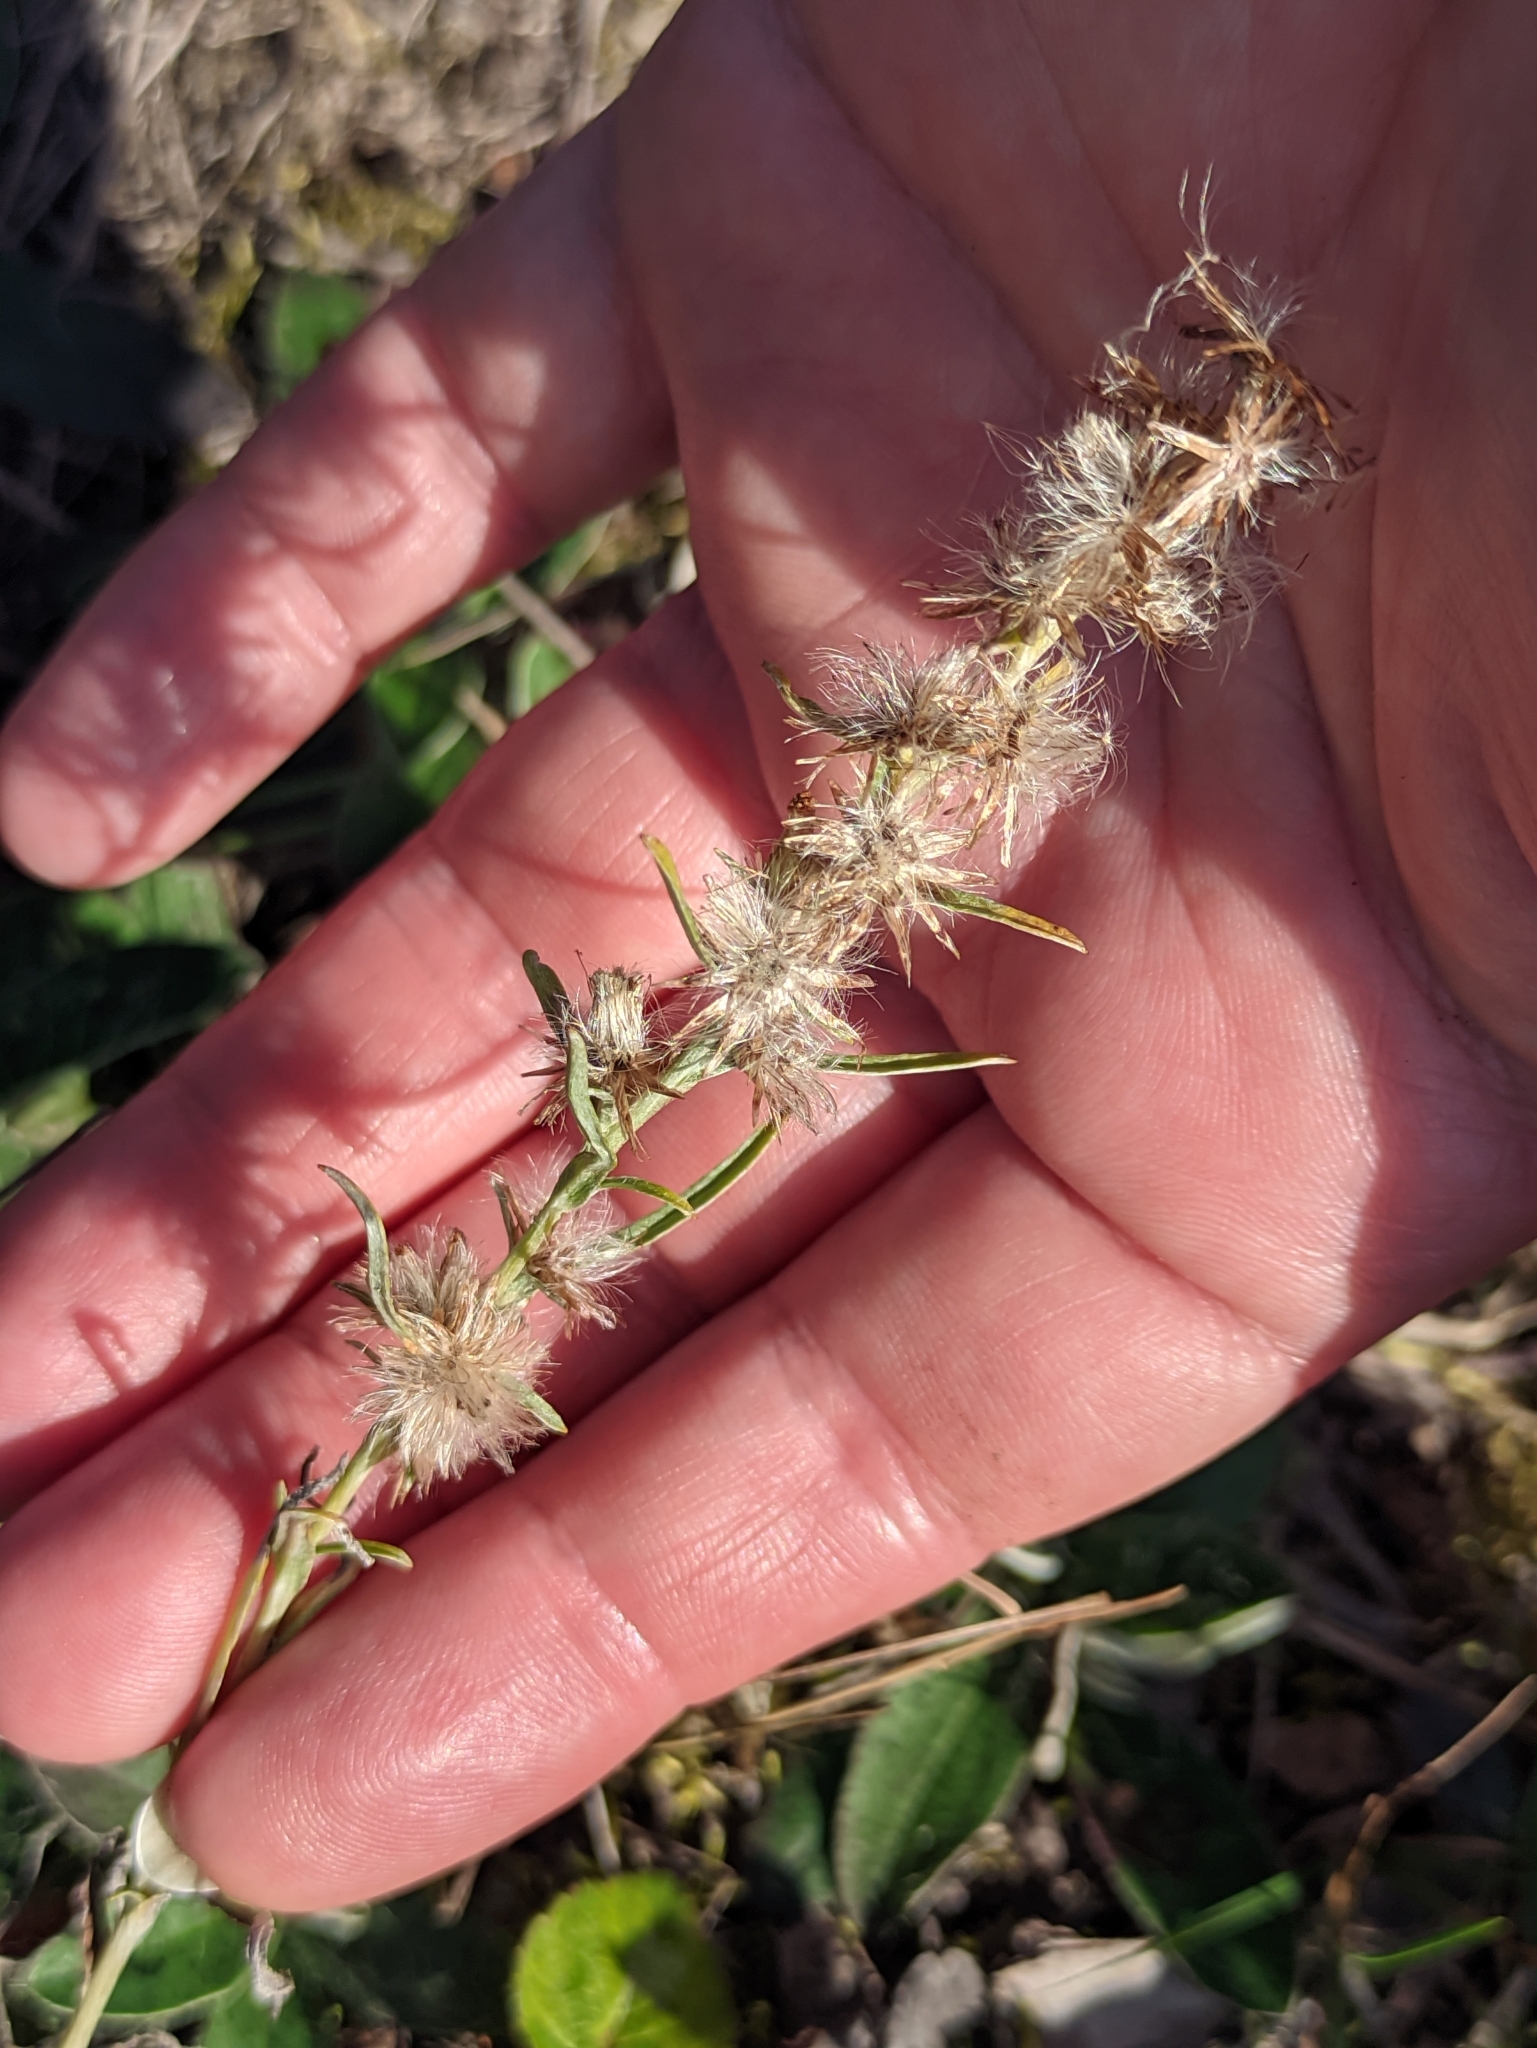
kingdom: Plantae
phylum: Tracheophyta
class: Magnoliopsida
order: Asterales
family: Asteraceae
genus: Omalotheca
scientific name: Omalotheca sylvatica
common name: Heath cudweed
